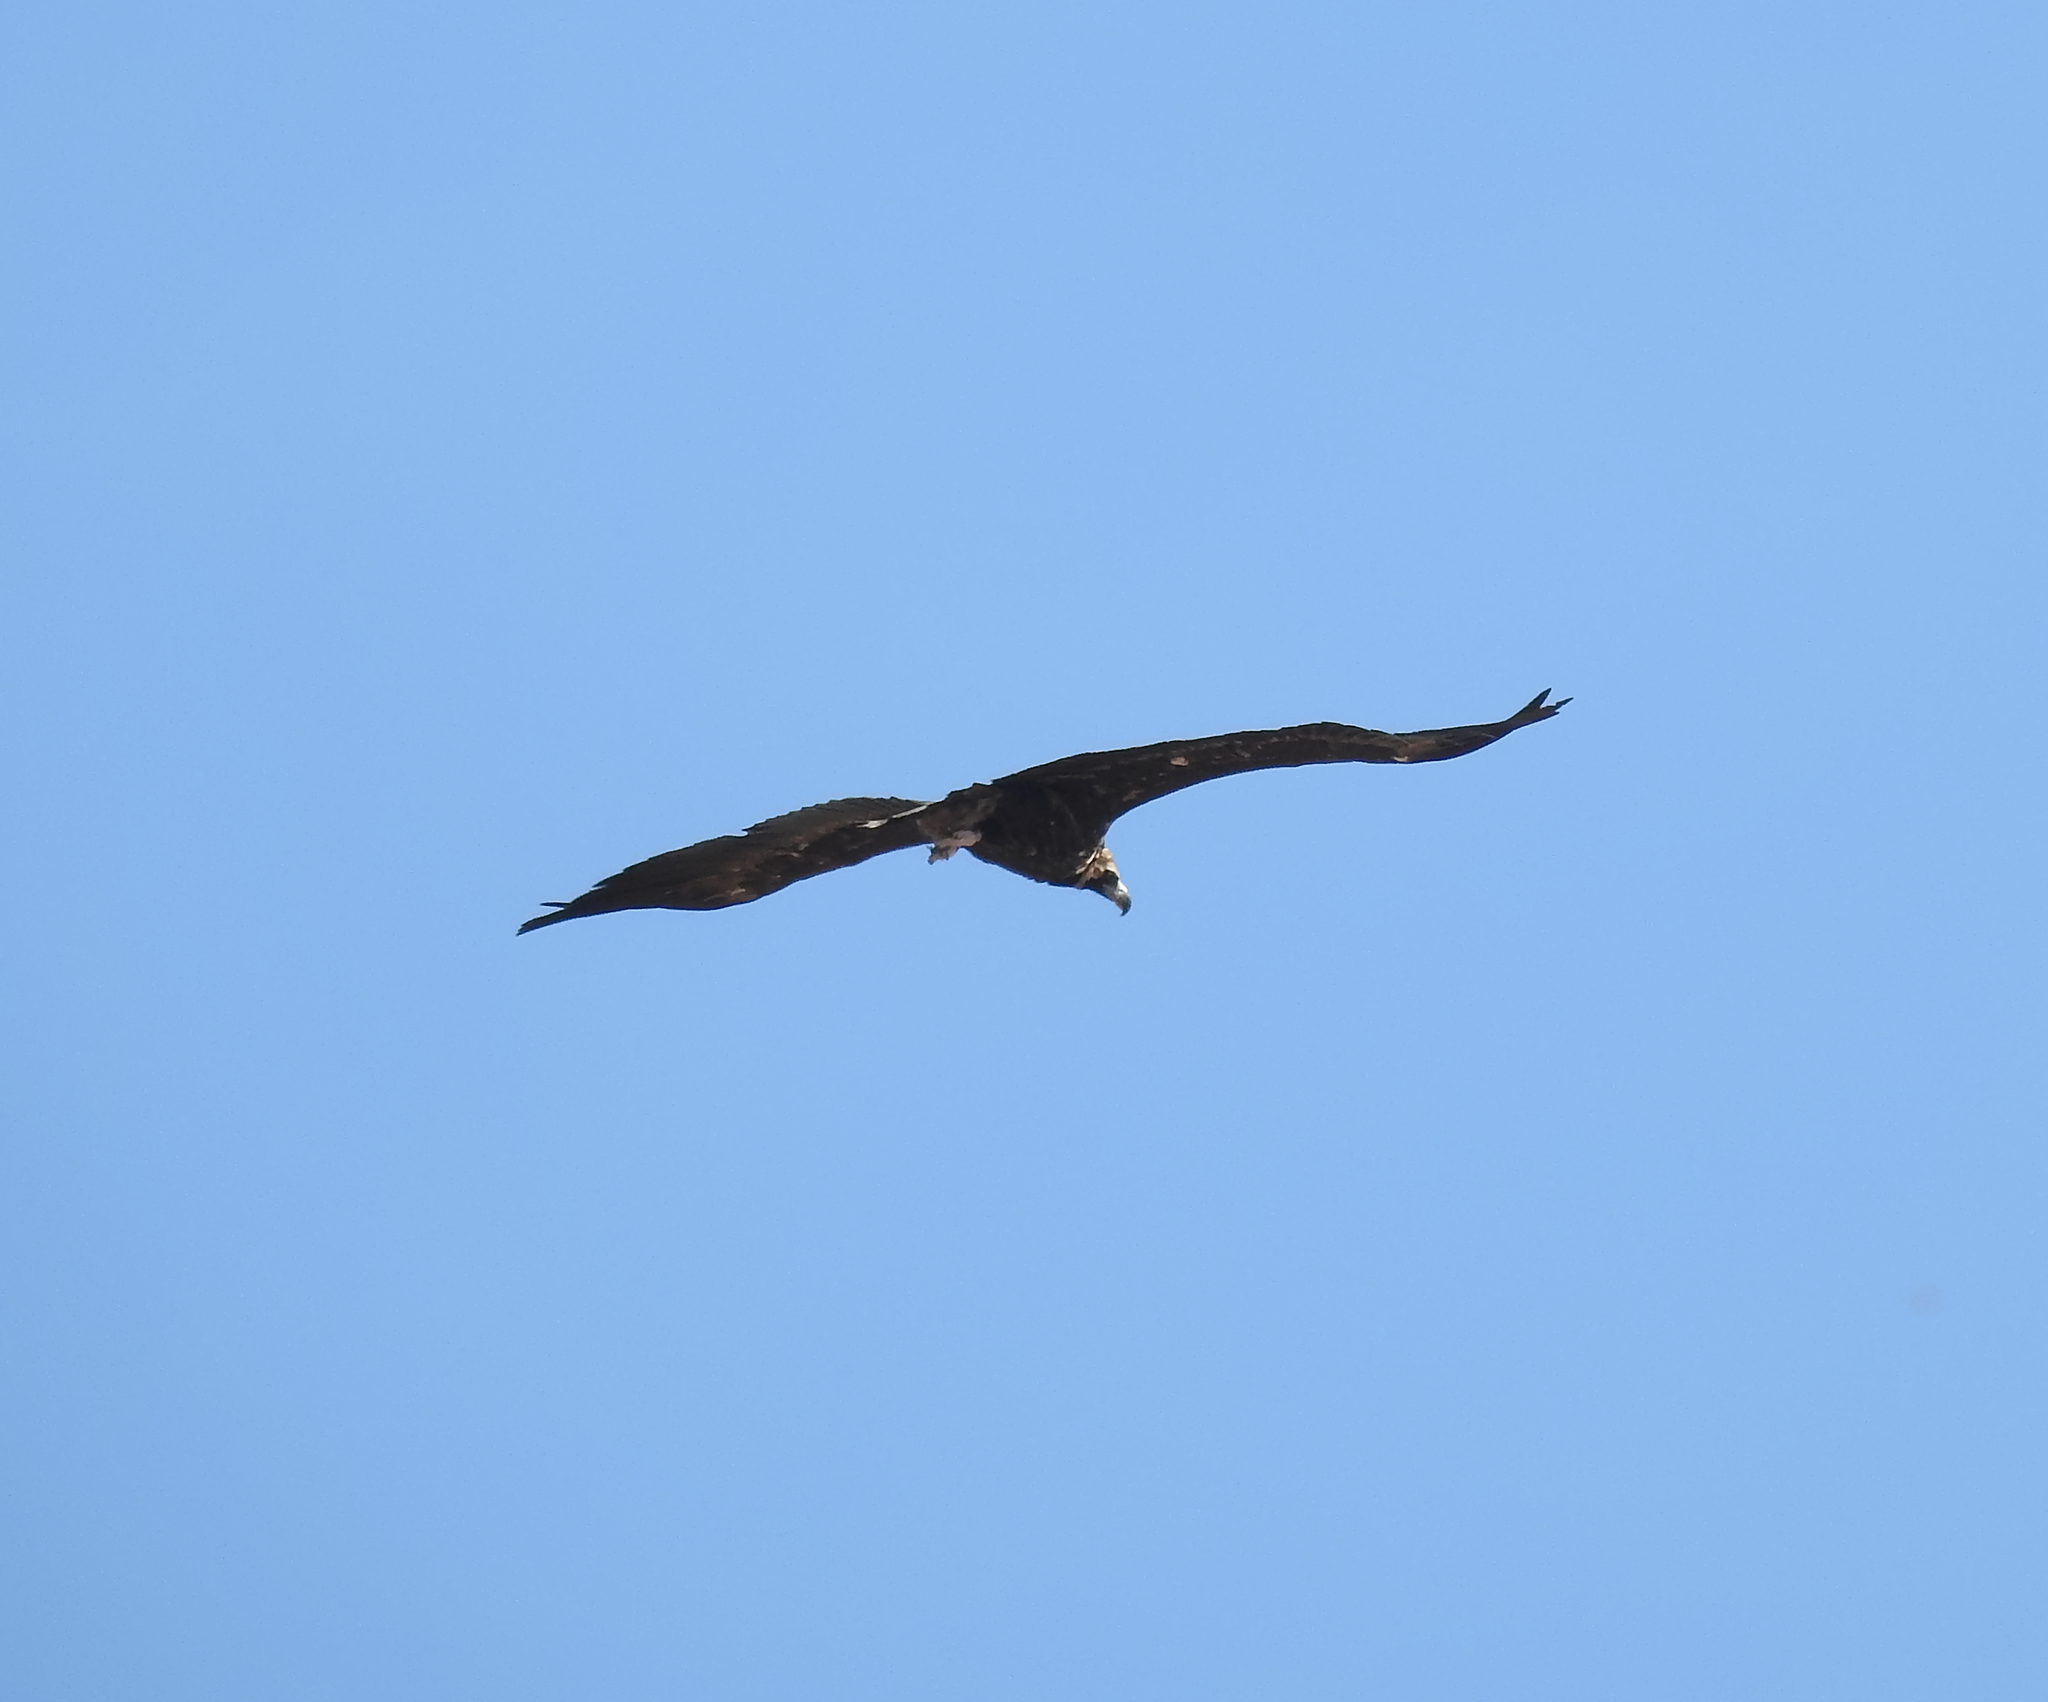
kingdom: Animalia
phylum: Chordata
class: Aves
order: Accipitriformes
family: Accipitridae
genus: Aegypius
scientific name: Aegypius monachus
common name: Cinereous vulture
